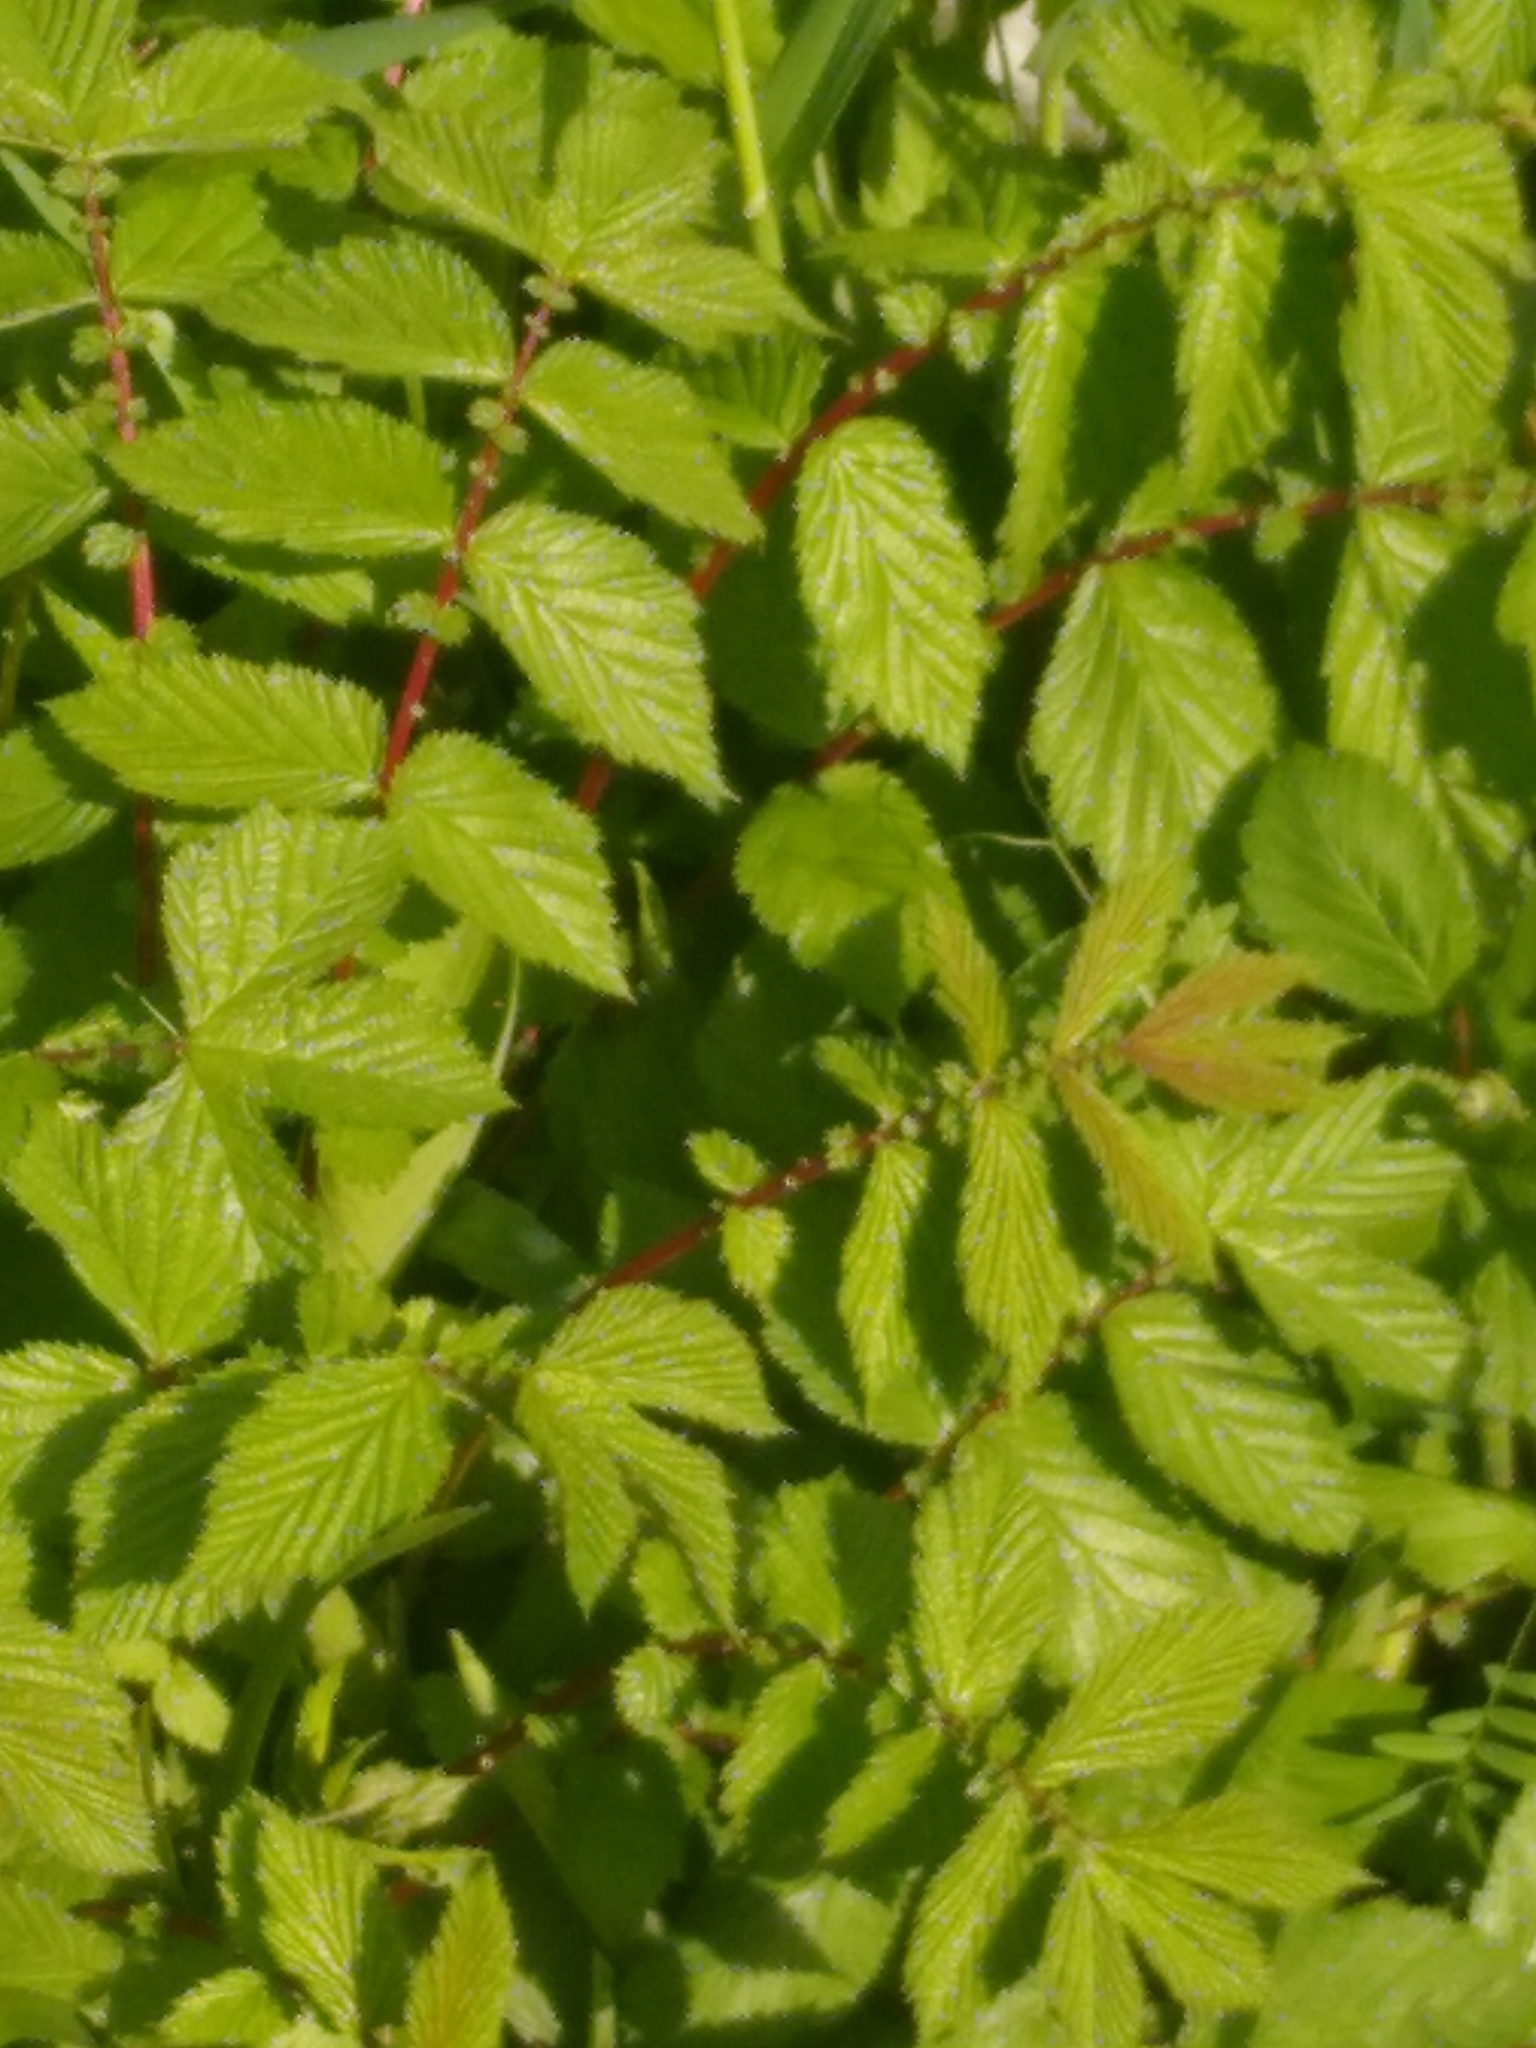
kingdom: Plantae
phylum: Tracheophyta
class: Magnoliopsida
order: Rosales
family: Rosaceae
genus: Filipendula
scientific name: Filipendula ulmaria
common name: Meadowsweet
